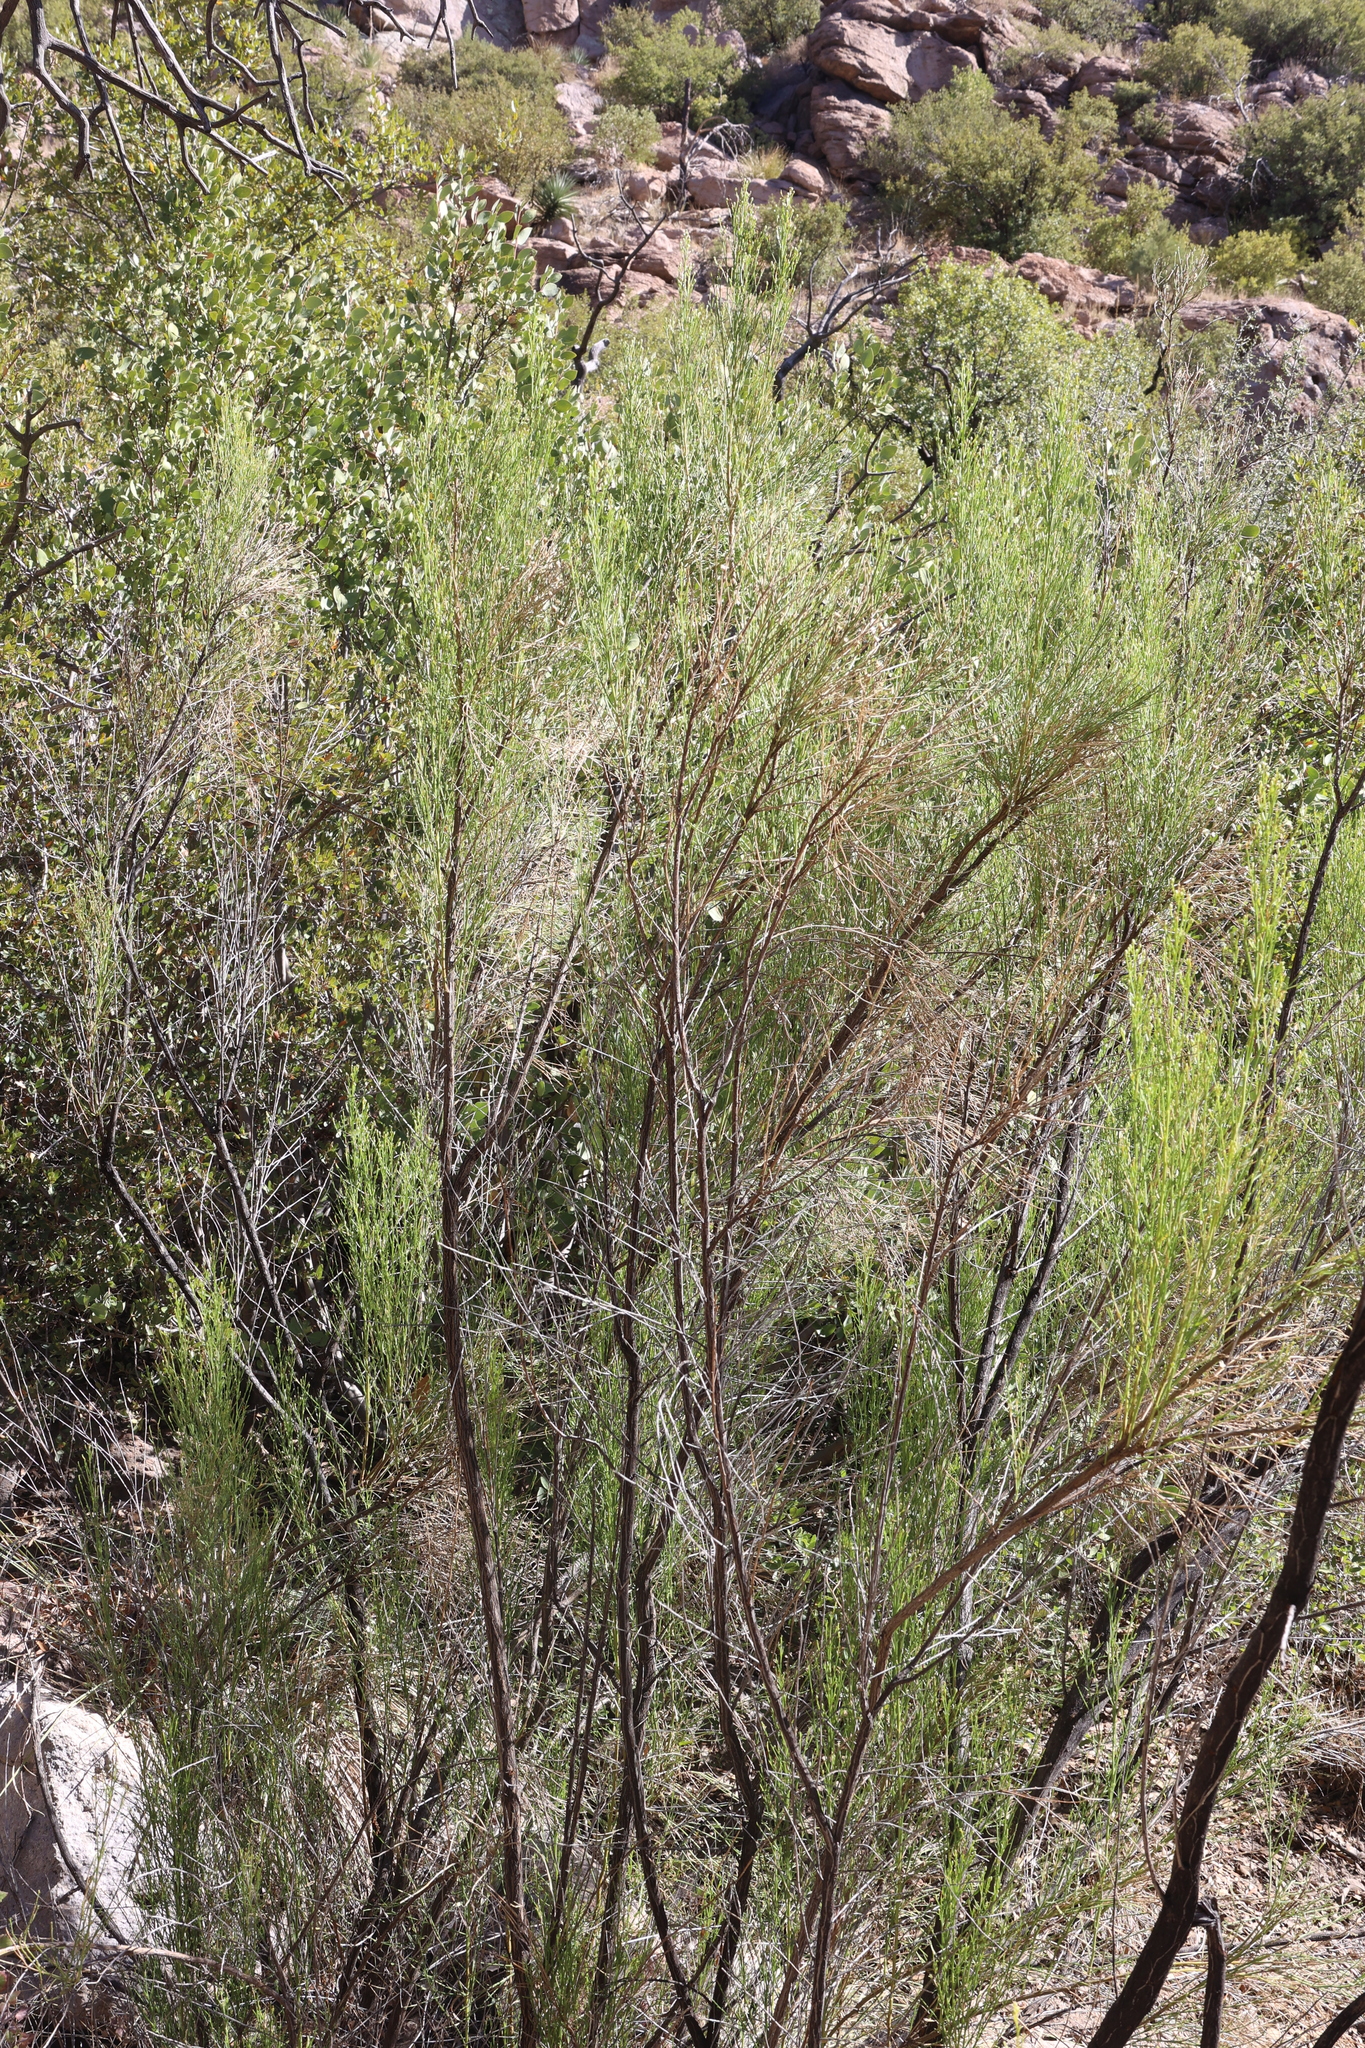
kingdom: Plantae
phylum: Tracheophyta
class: Magnoliopsida
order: Asterales
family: Asteraceae
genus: Baccharis
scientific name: Baccharis sarothroides
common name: Desert-broom
